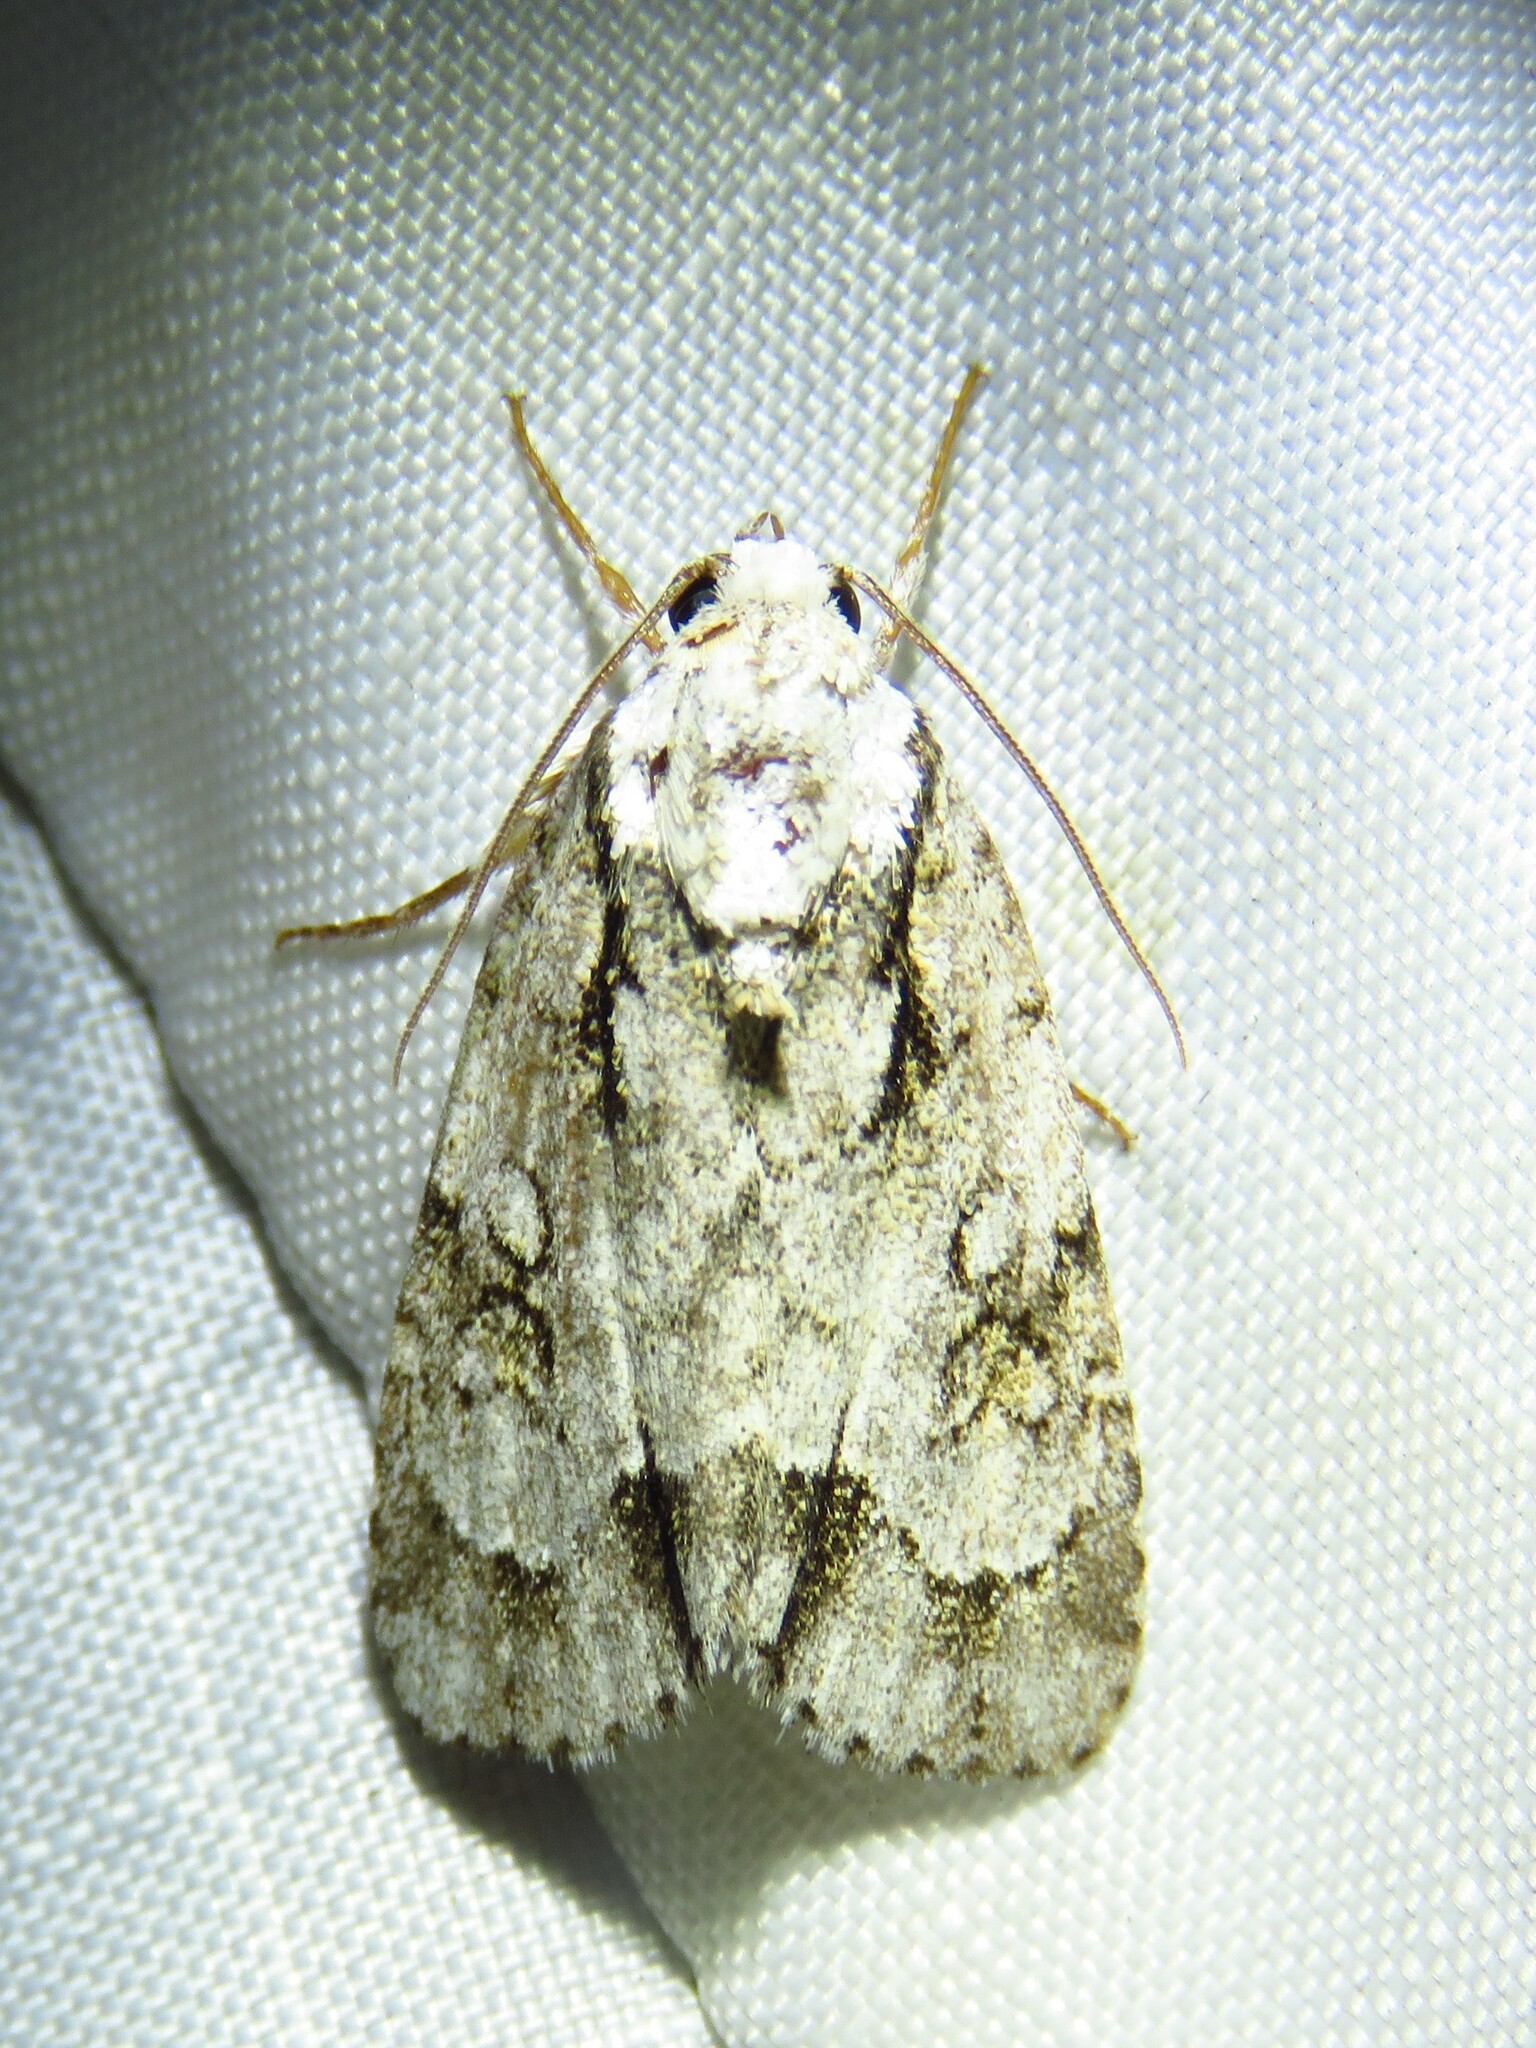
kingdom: Animalia
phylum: Arthropoda
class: Insecta
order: Lepidoptera
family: Noctuidae
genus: Acronicta
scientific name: Acronicta vinnula
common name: Delightful dagger
